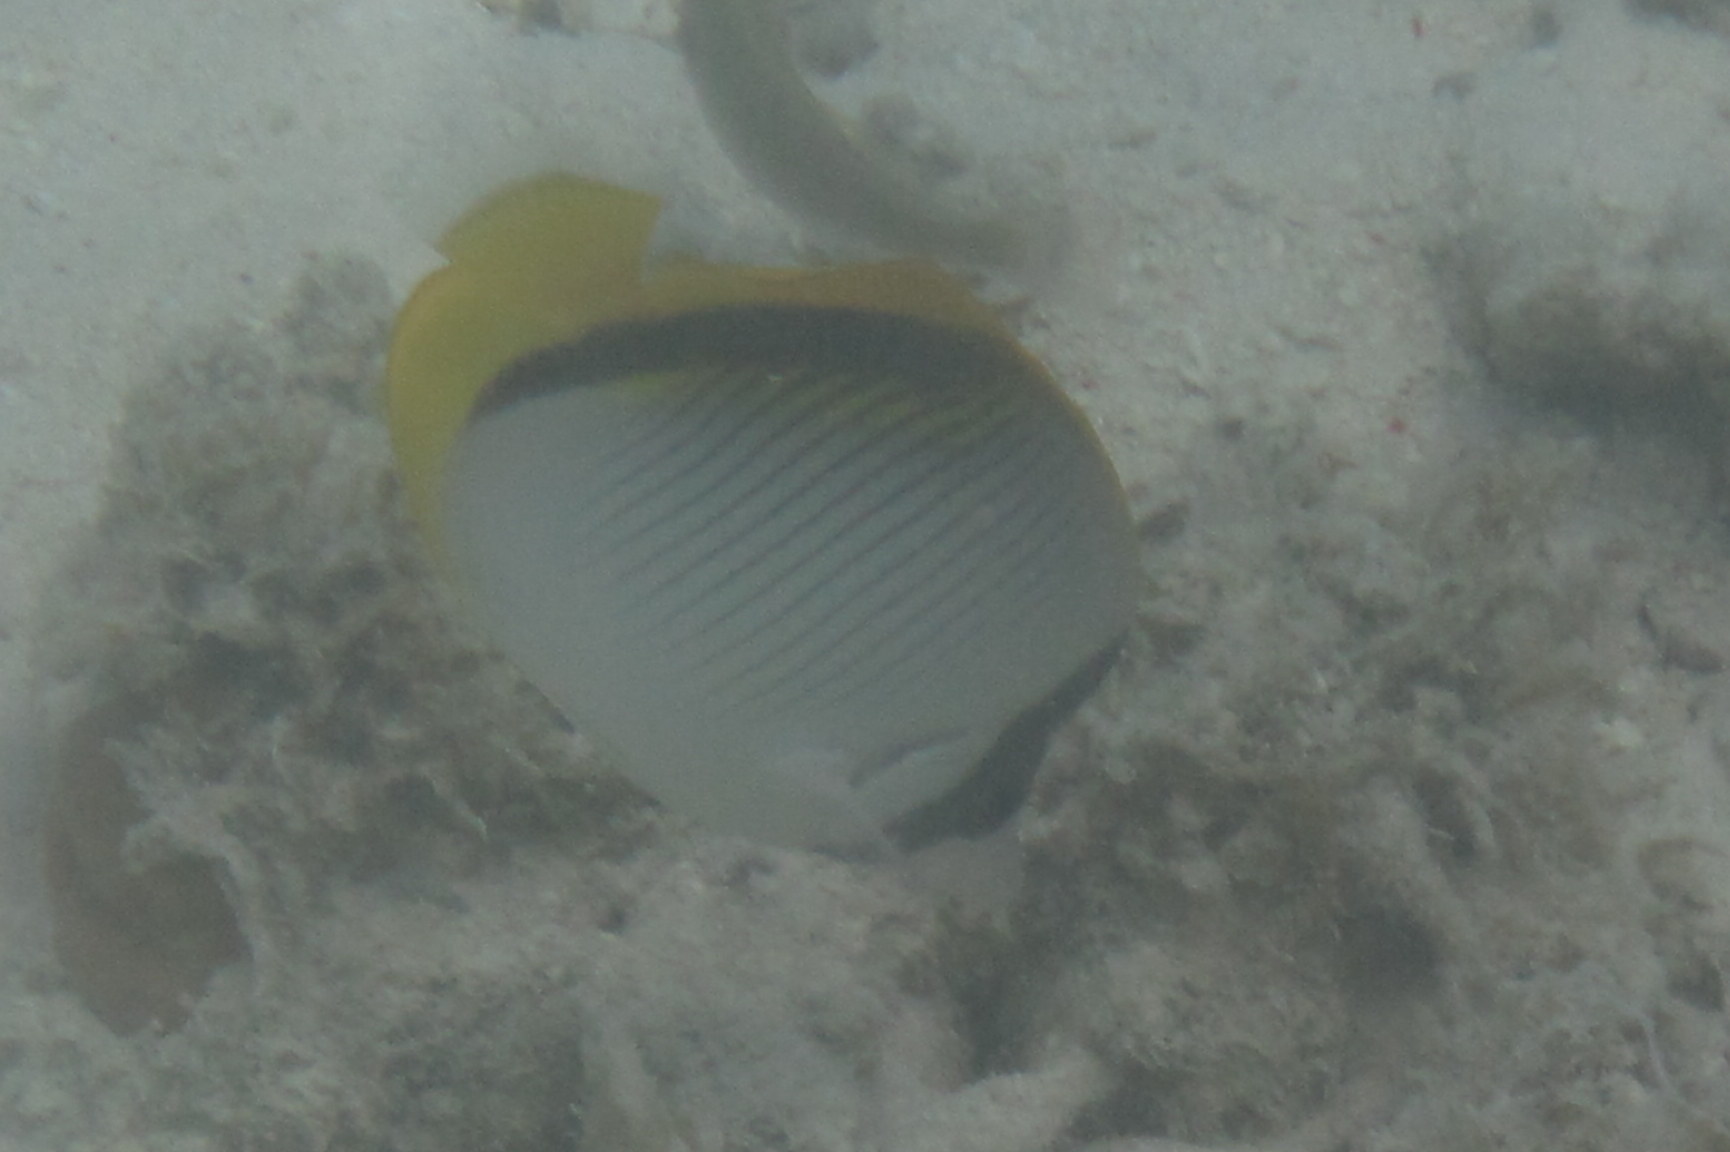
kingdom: Animalia
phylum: Chordata
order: Perciformes
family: Chaetodontidae
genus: Chaetodon
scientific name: Chaetodon lineolatus
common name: Lined butterflyfish
